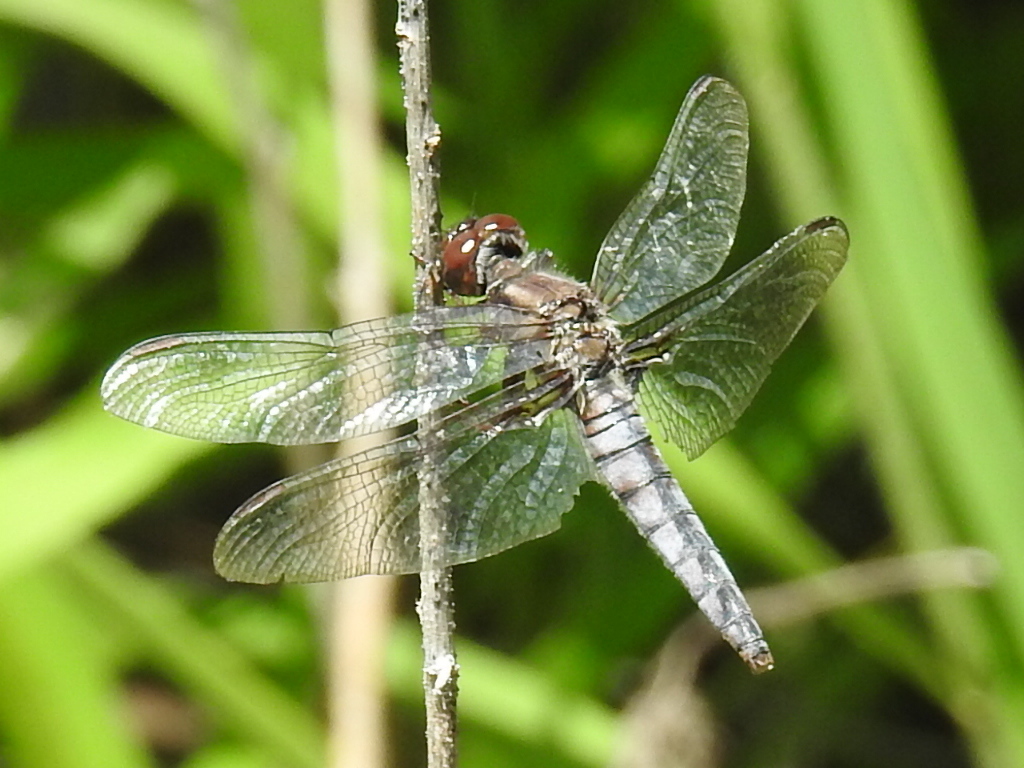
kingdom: Animalia
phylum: Arthropoda
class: Insecta
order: Odonata
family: Libellulidae
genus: Ladona
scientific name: Ladona deplanata
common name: Blue corporal
